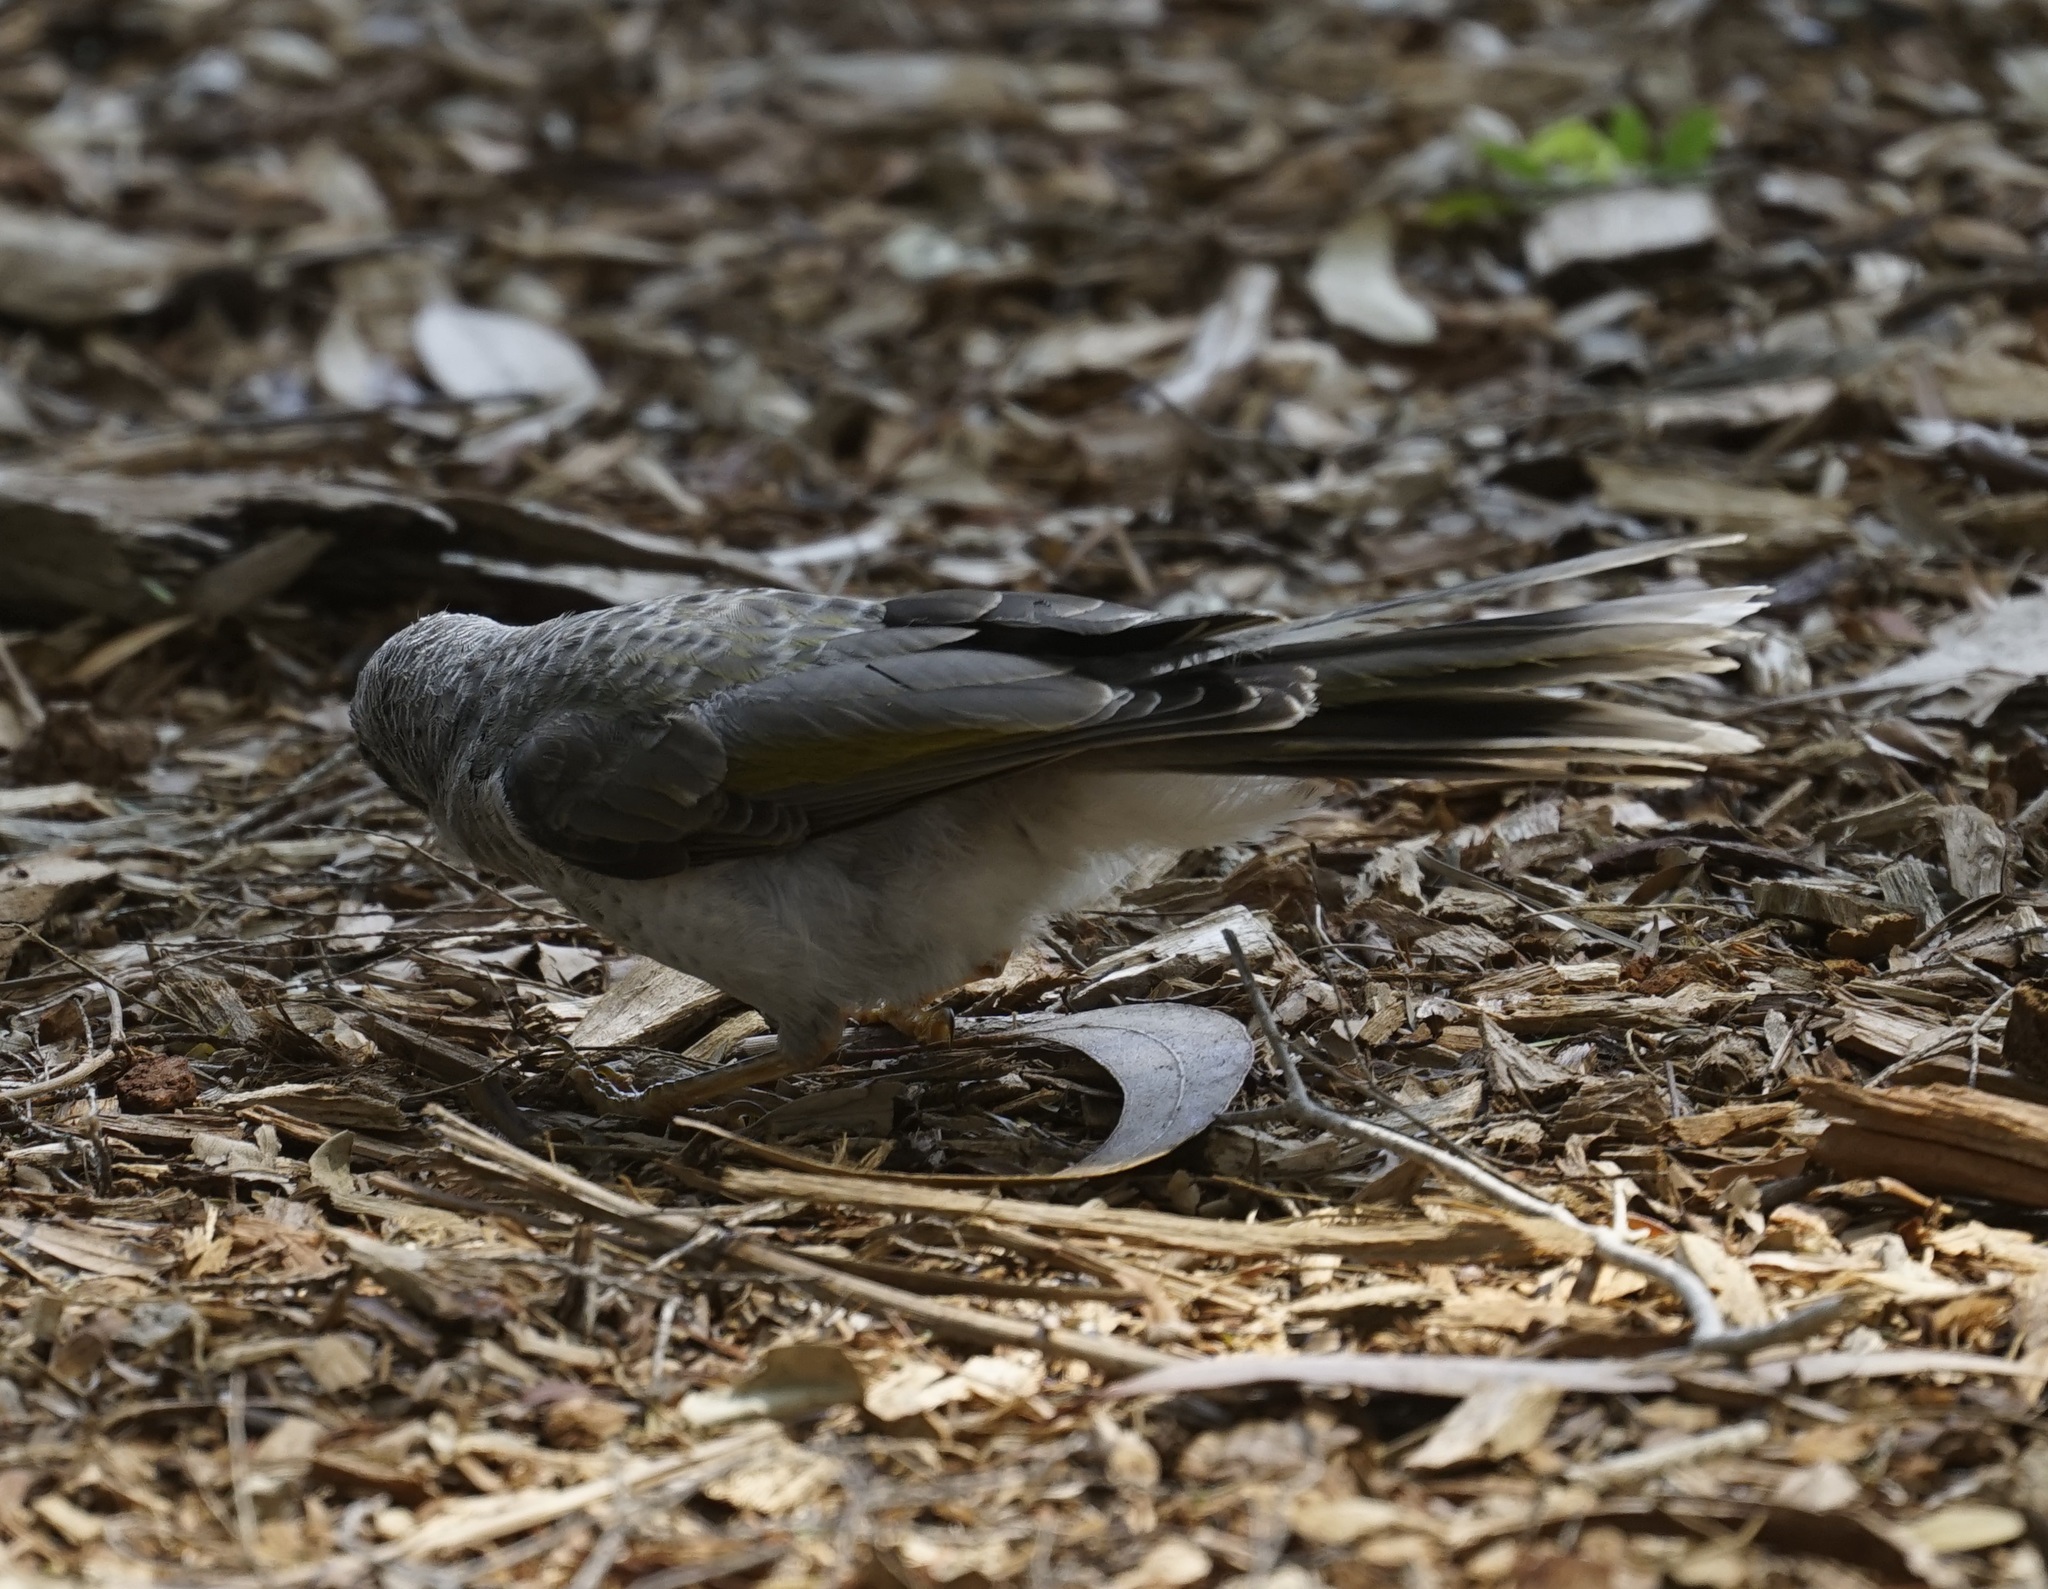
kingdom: Animalia
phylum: Chordata
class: Aves
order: Passeriformes
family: Meliphagidae
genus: Manorina
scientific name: Manorina melanocephala
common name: Noisy miner
